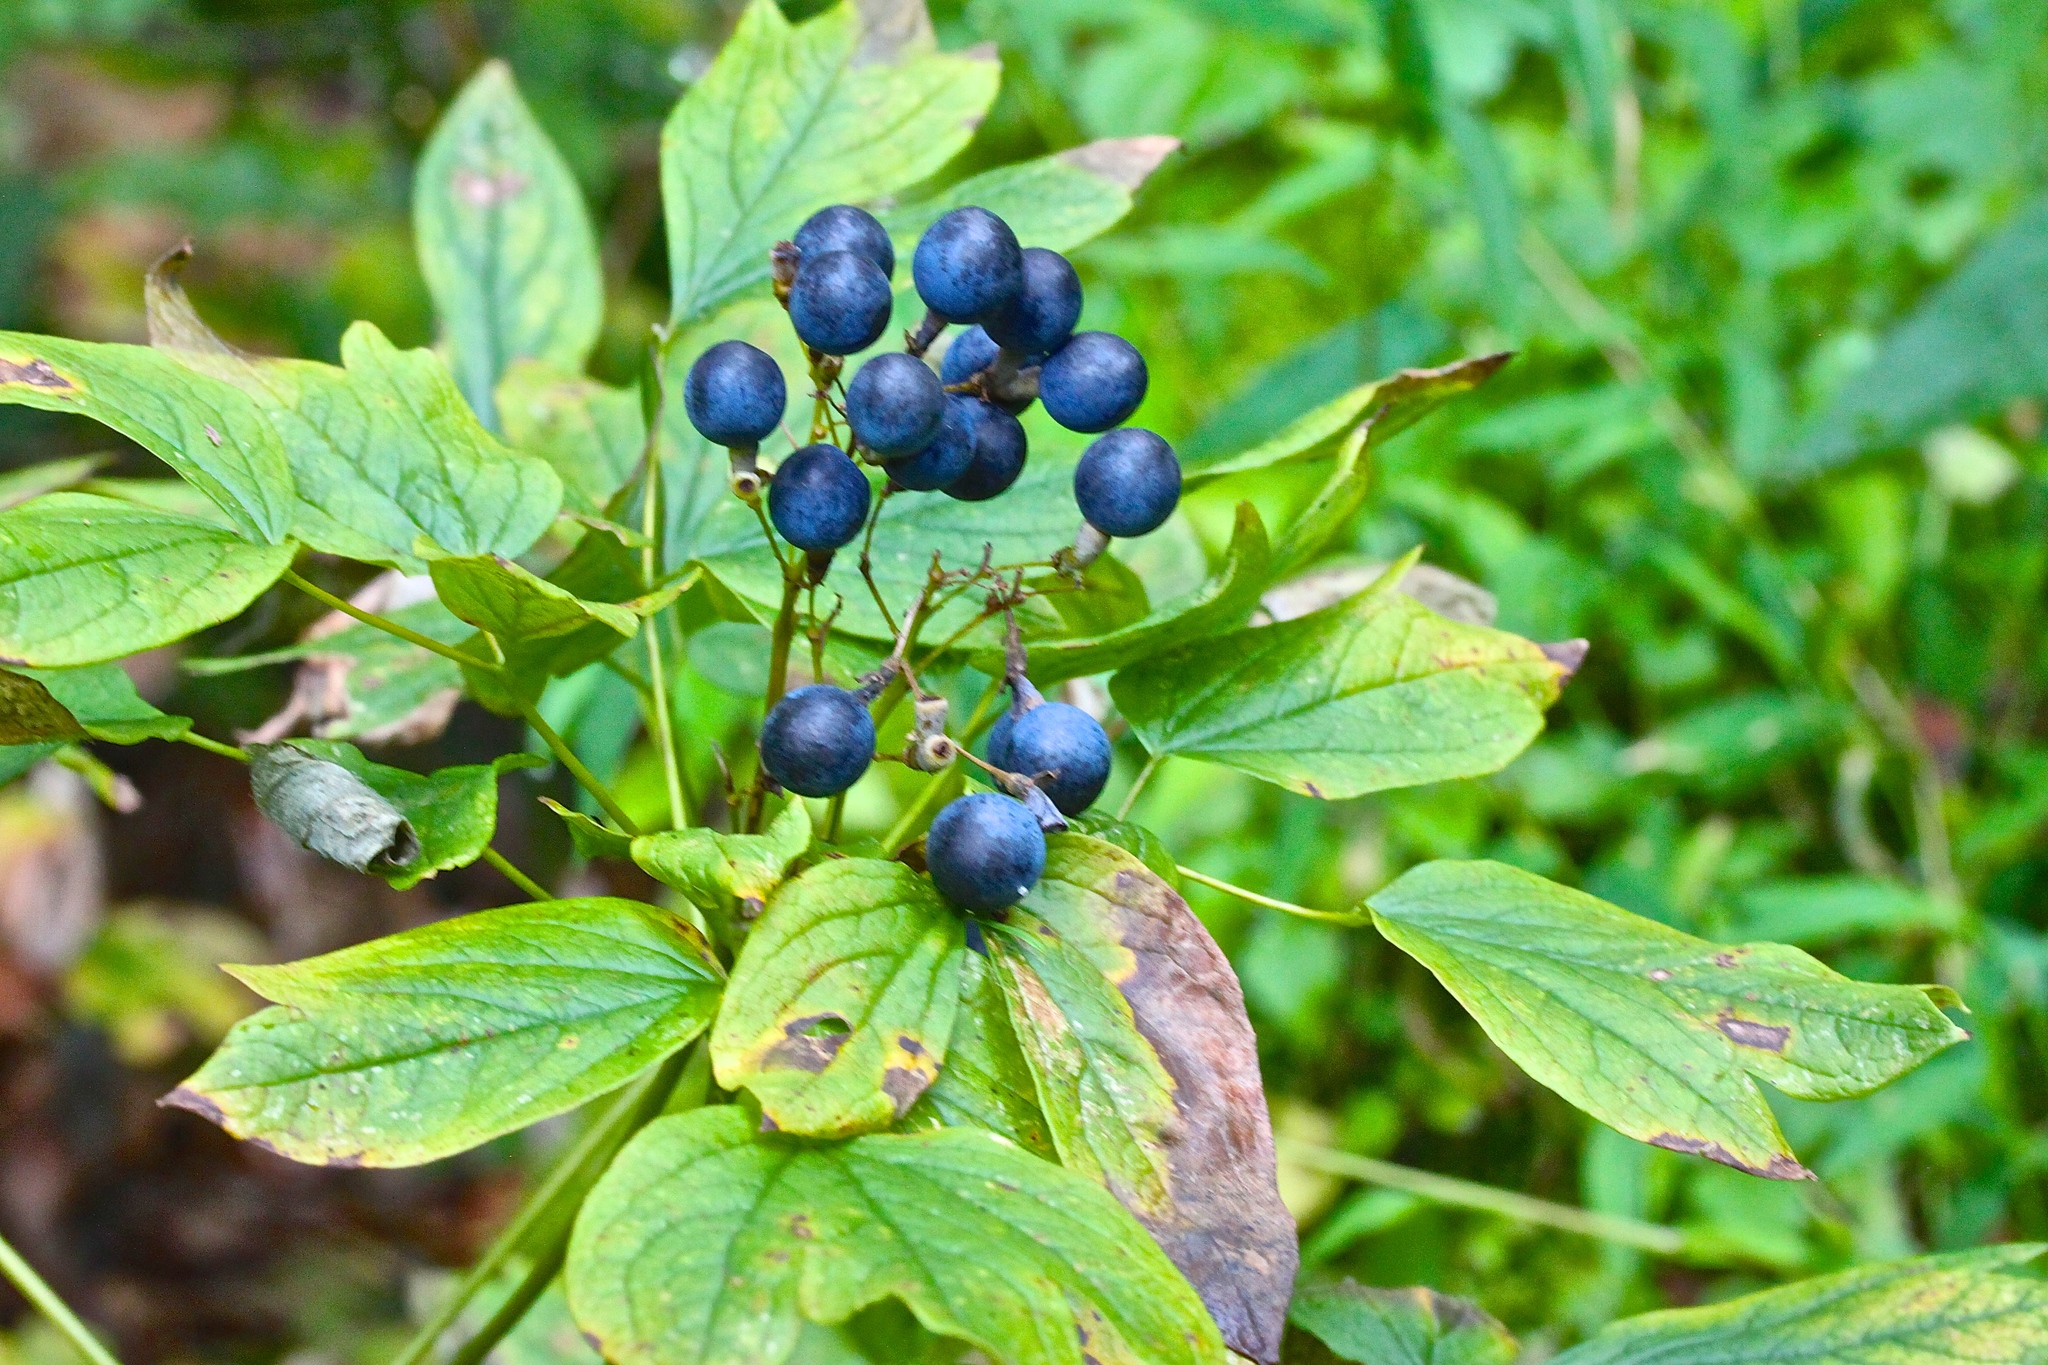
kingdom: Plantae
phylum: Tracheophyta
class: Magnoliopsida
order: Ranunculales
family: Berberidaceae
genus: Caulophyllum
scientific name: Caulophyllum thalictroides
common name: Blue cohosh
